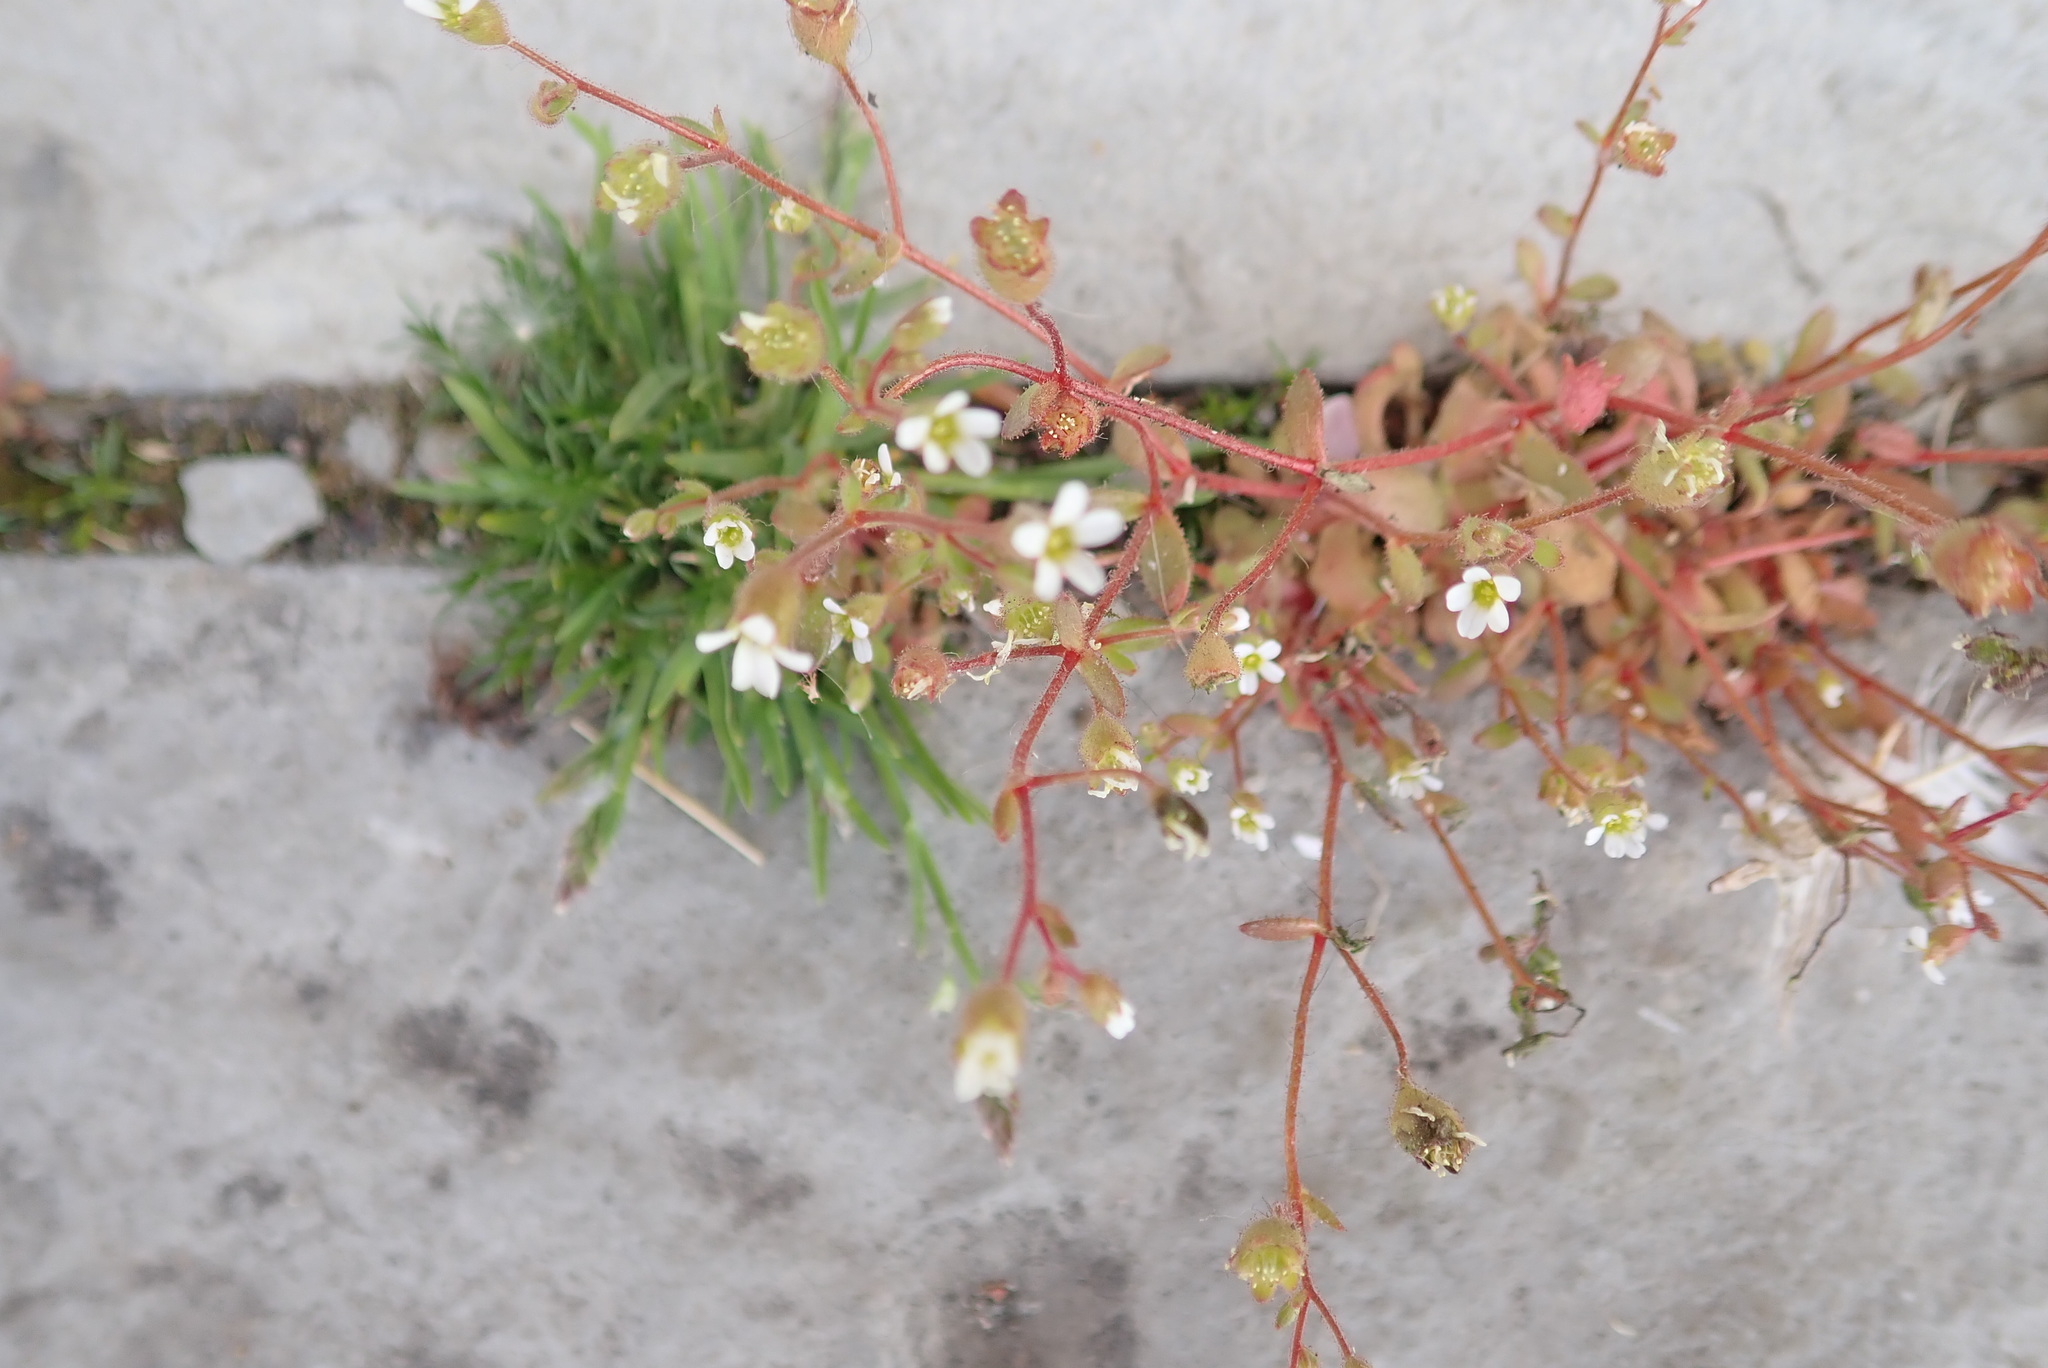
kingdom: Plantae
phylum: Tracheophyta
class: Magnoliopsida
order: Saxifragales
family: Saxifragaceae
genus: Saxifraga
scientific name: Saxifraga tridactylites
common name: Rue-leaved saxifrage
